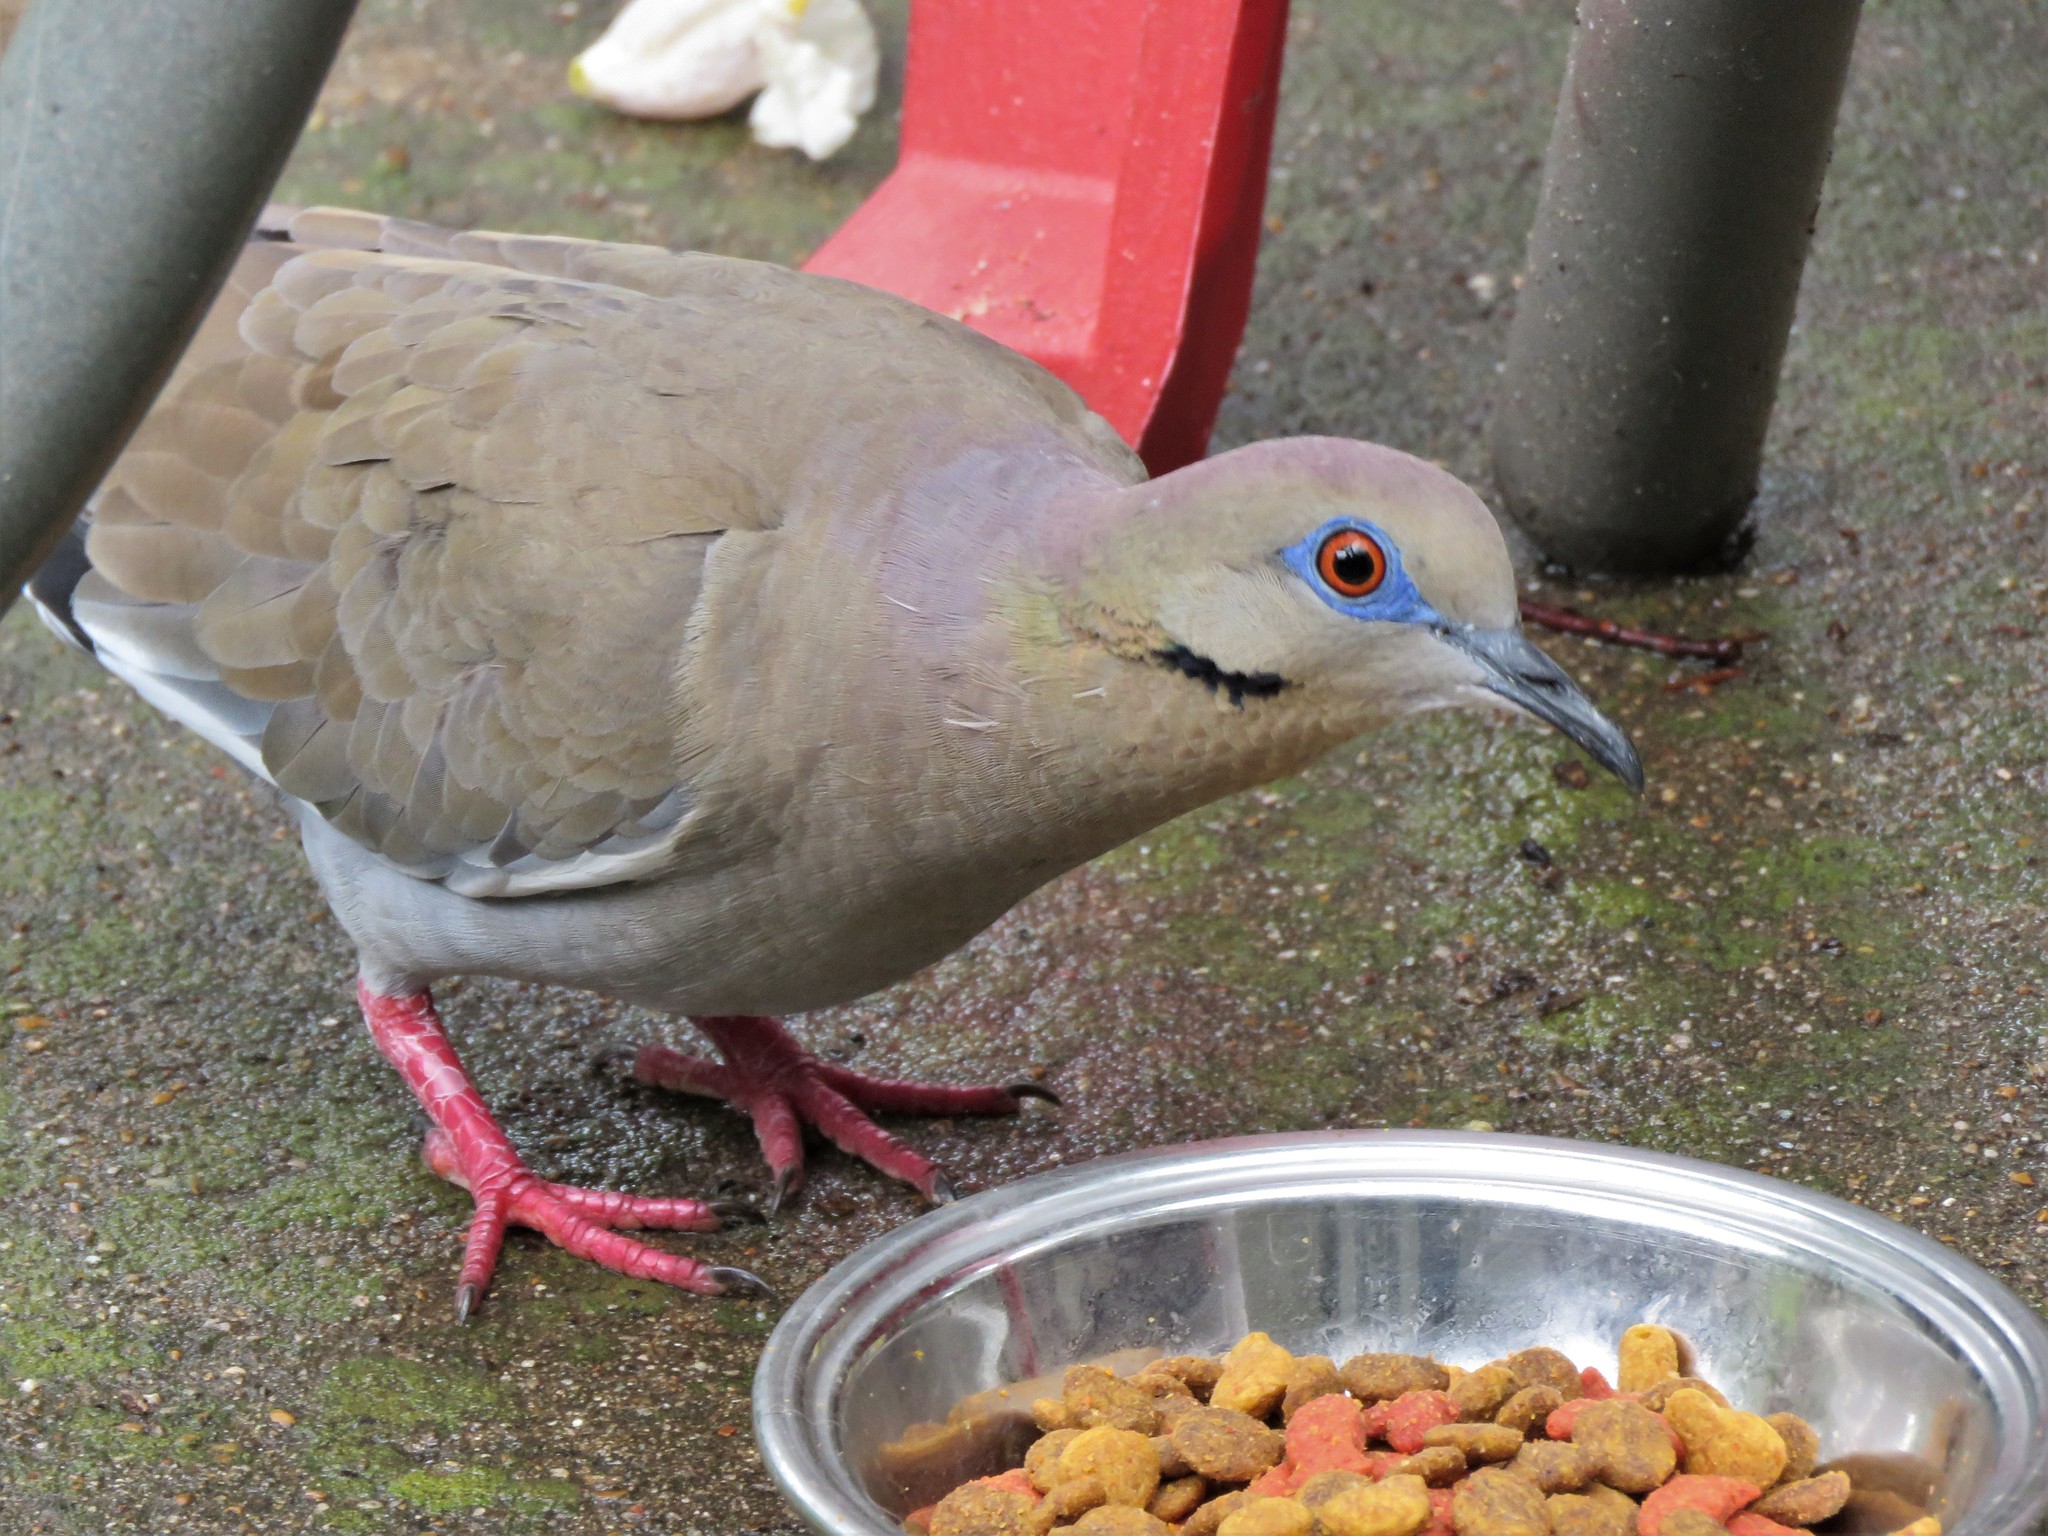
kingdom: Animalia
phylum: Chordata
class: Aves
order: Columbiformes
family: Columbidae
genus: Zenaida
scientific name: Zenaida asiatica
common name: White-winged dove
